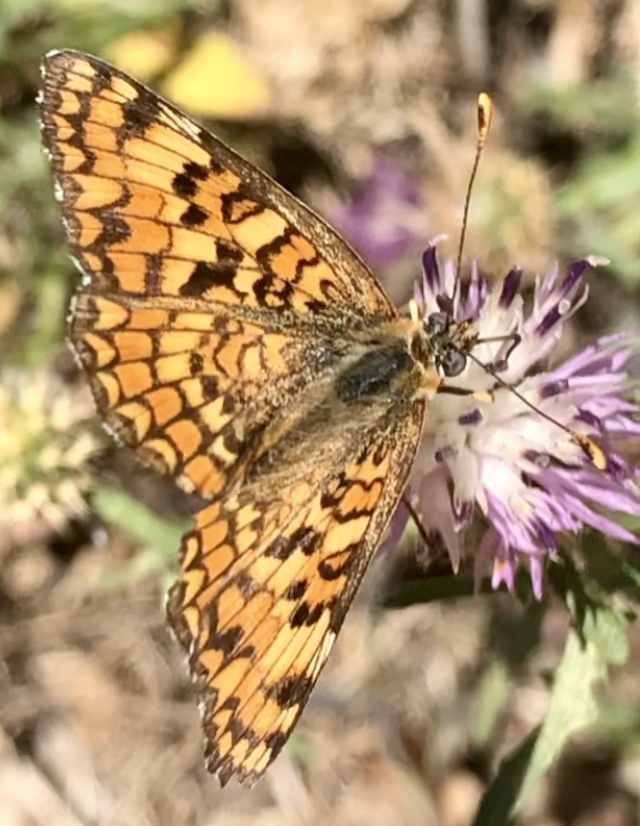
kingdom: Animalia
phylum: Arthropoda
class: Insecta
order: Lepidoptera
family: Nymphalidae
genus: Melitaea
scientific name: Melitaea phoebe
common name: Knapweed fritillary
